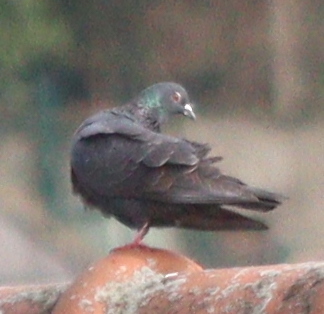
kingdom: Animalia
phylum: Chordata
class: Aves
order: Columbiformes
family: Columbidae
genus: Columba
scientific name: Columba livia
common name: Rock pigeon
